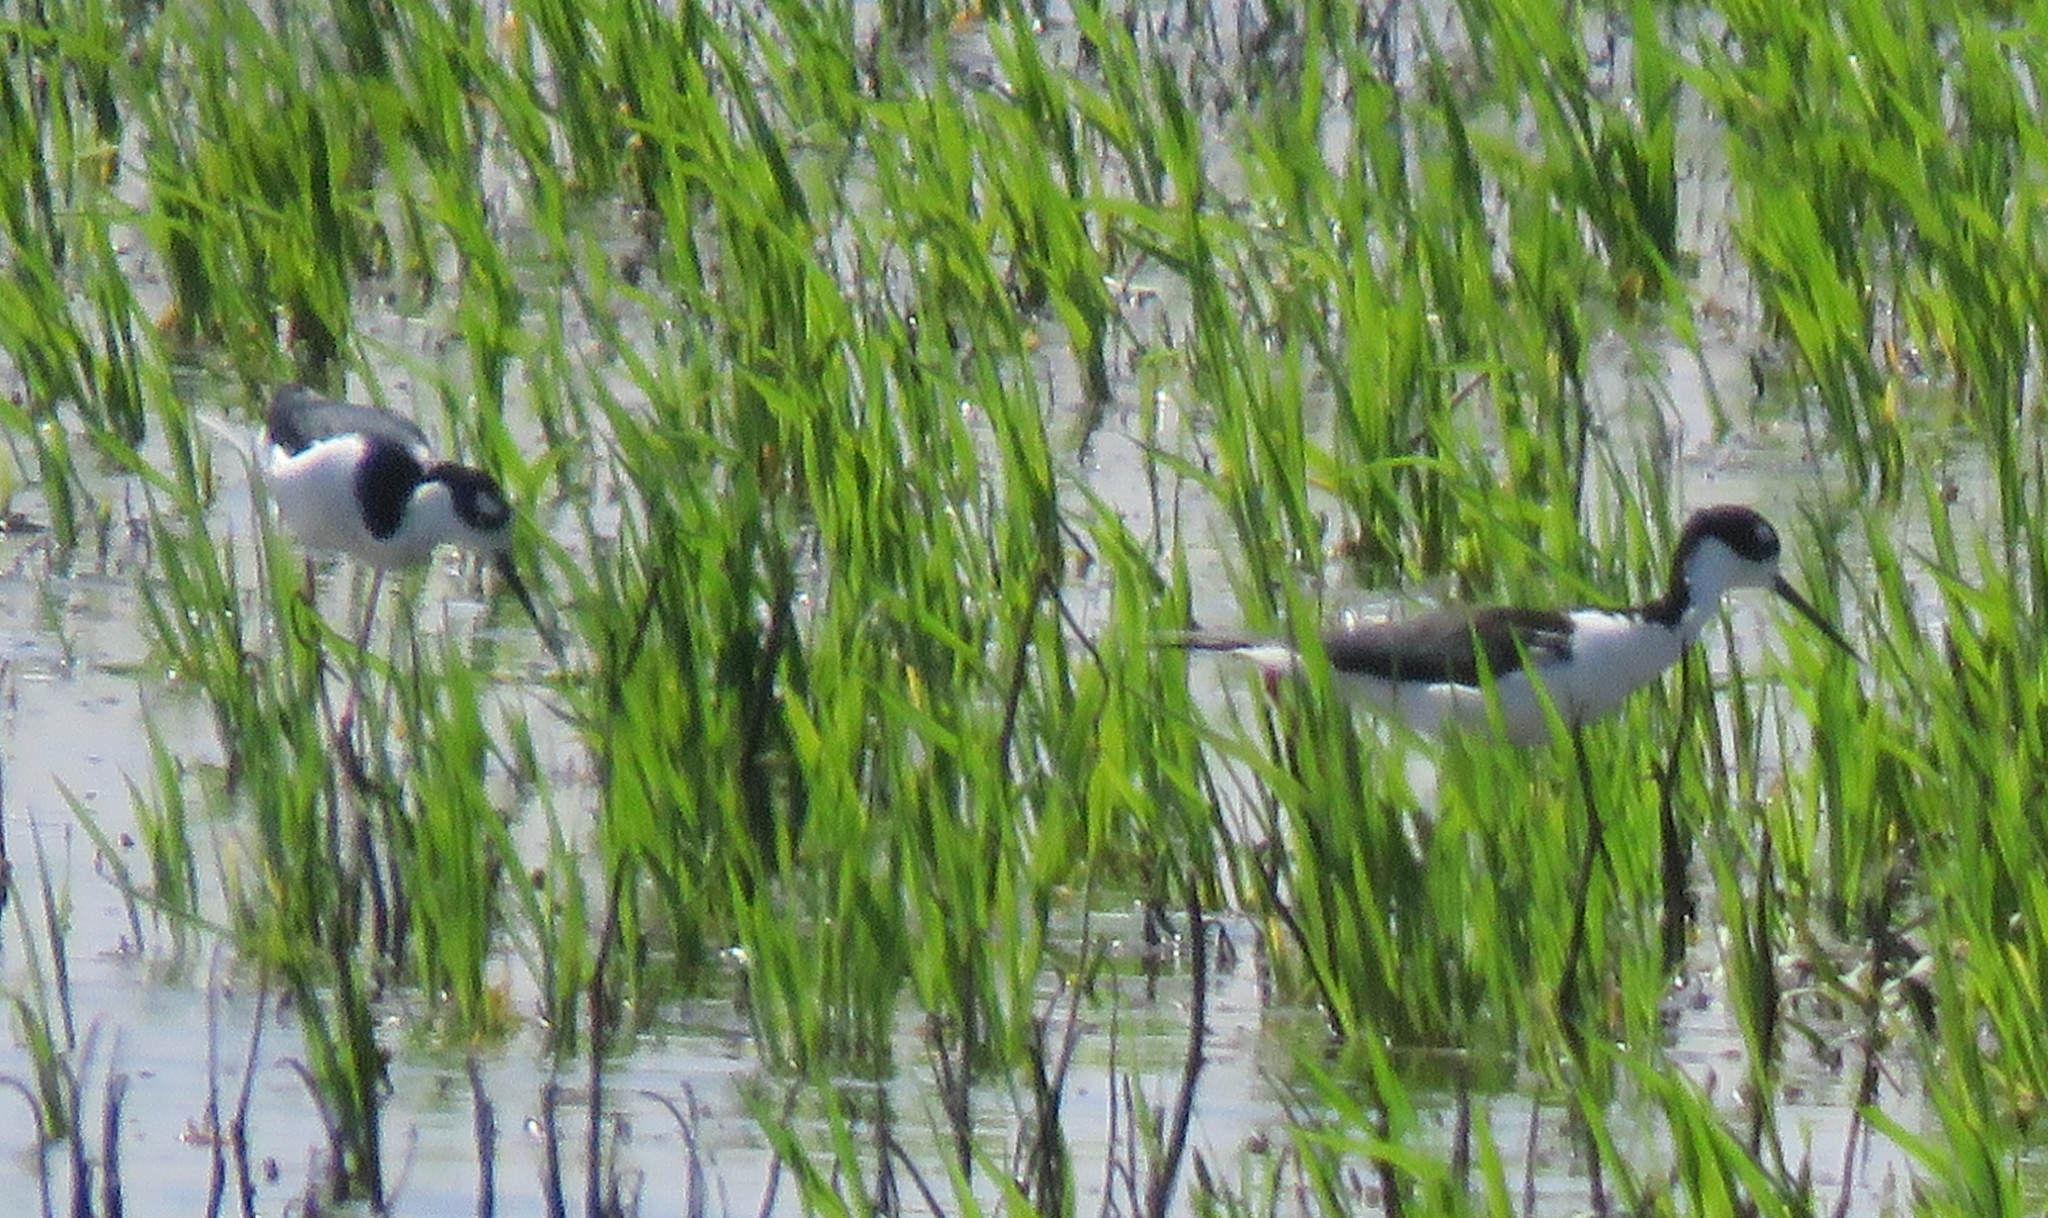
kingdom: Animalia
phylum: Chordata
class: Aves
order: Charadriiformes
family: Recurvirostridae
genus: Himantopus
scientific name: Himantopus mexicanus
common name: Black-necked stilt
